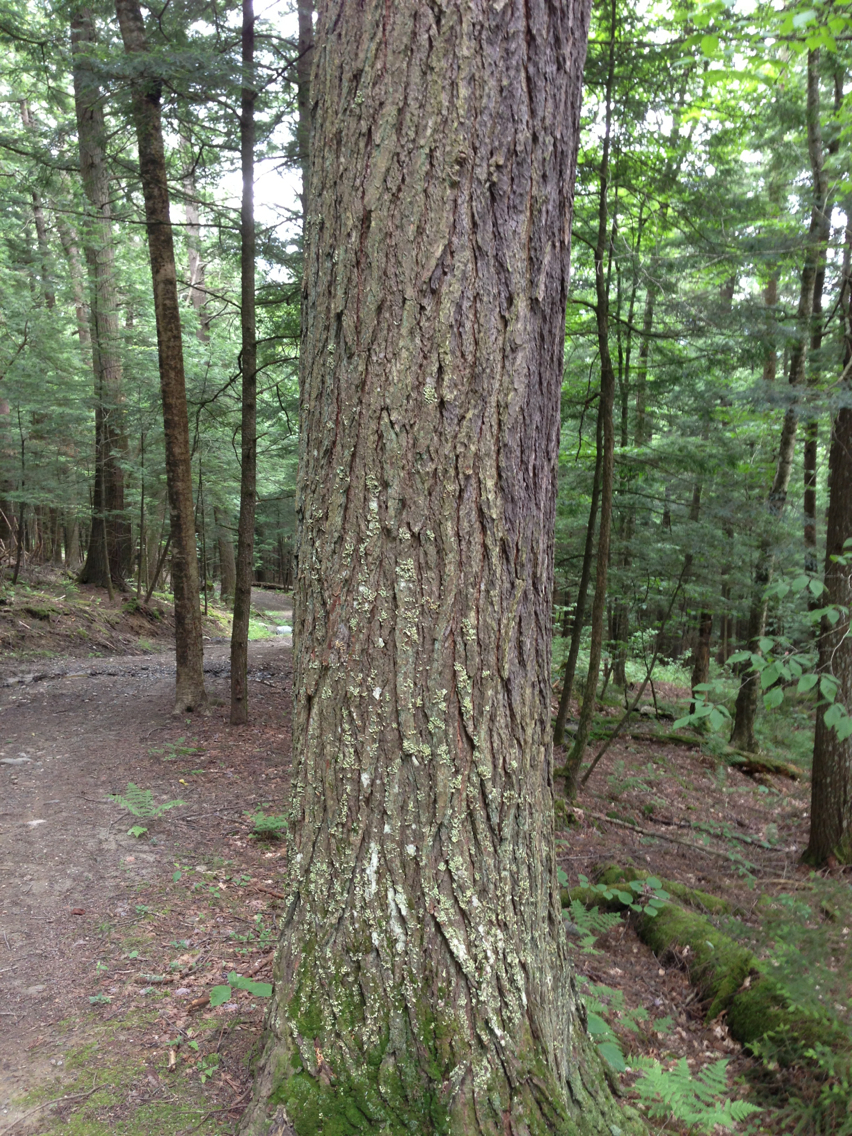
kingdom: Plantae
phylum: Tracheophyta
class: Pinopsida
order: Pinales
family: Pinaceae
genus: Tsuga
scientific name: Tsuga canadensis
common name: Eastern hemlock
